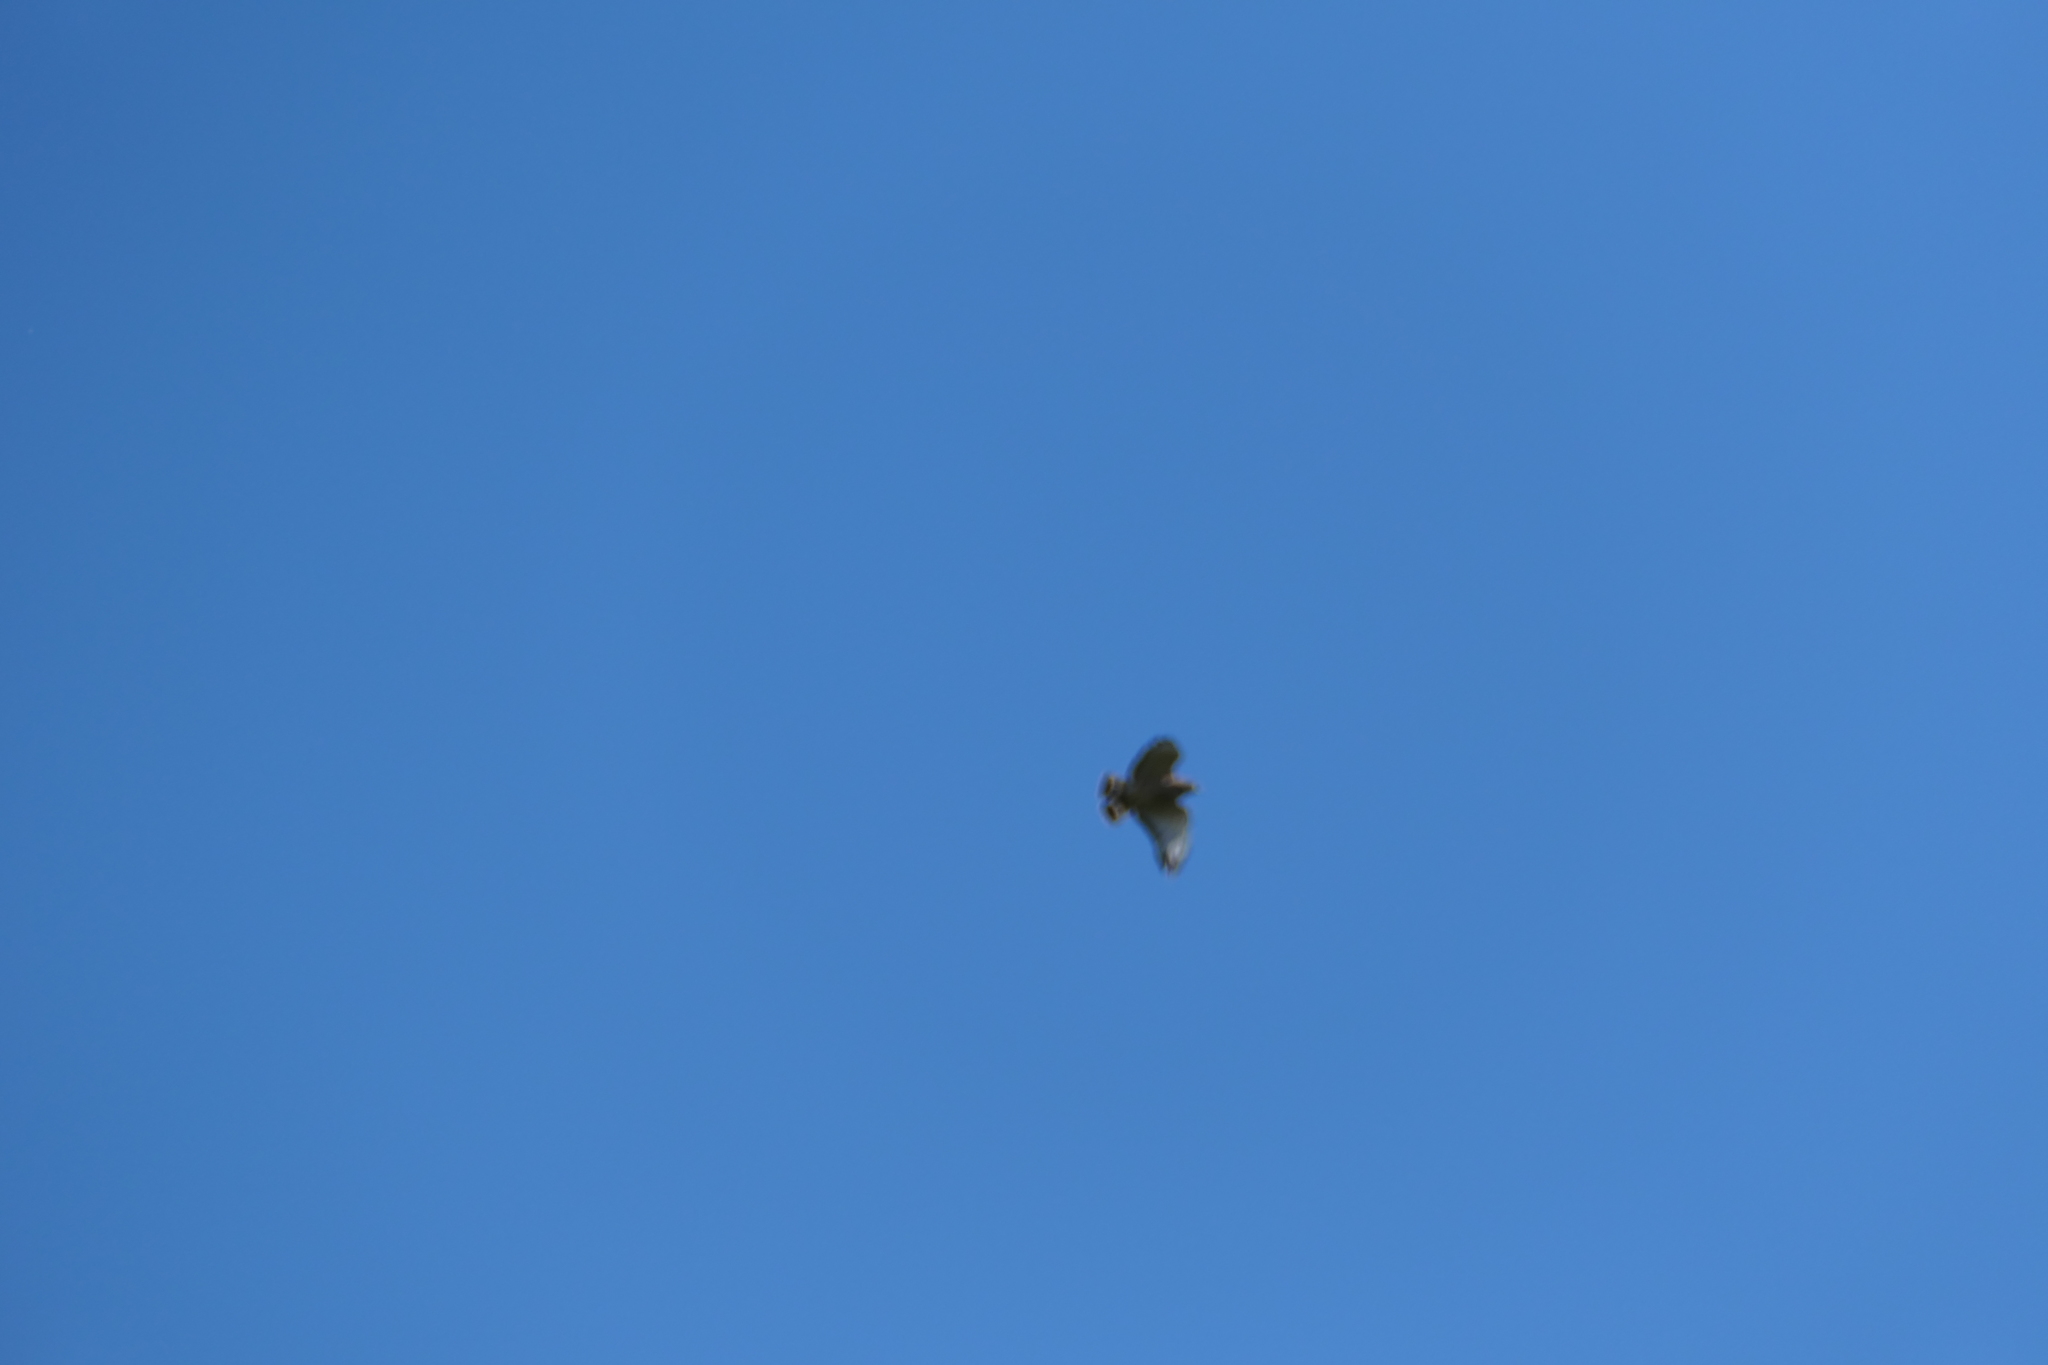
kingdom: Animalia
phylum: Chordata
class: Aves
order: Accipitriformes
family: Accipitridae
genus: Buteo
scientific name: Buteo platypterus
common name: Broad-winged hawk
